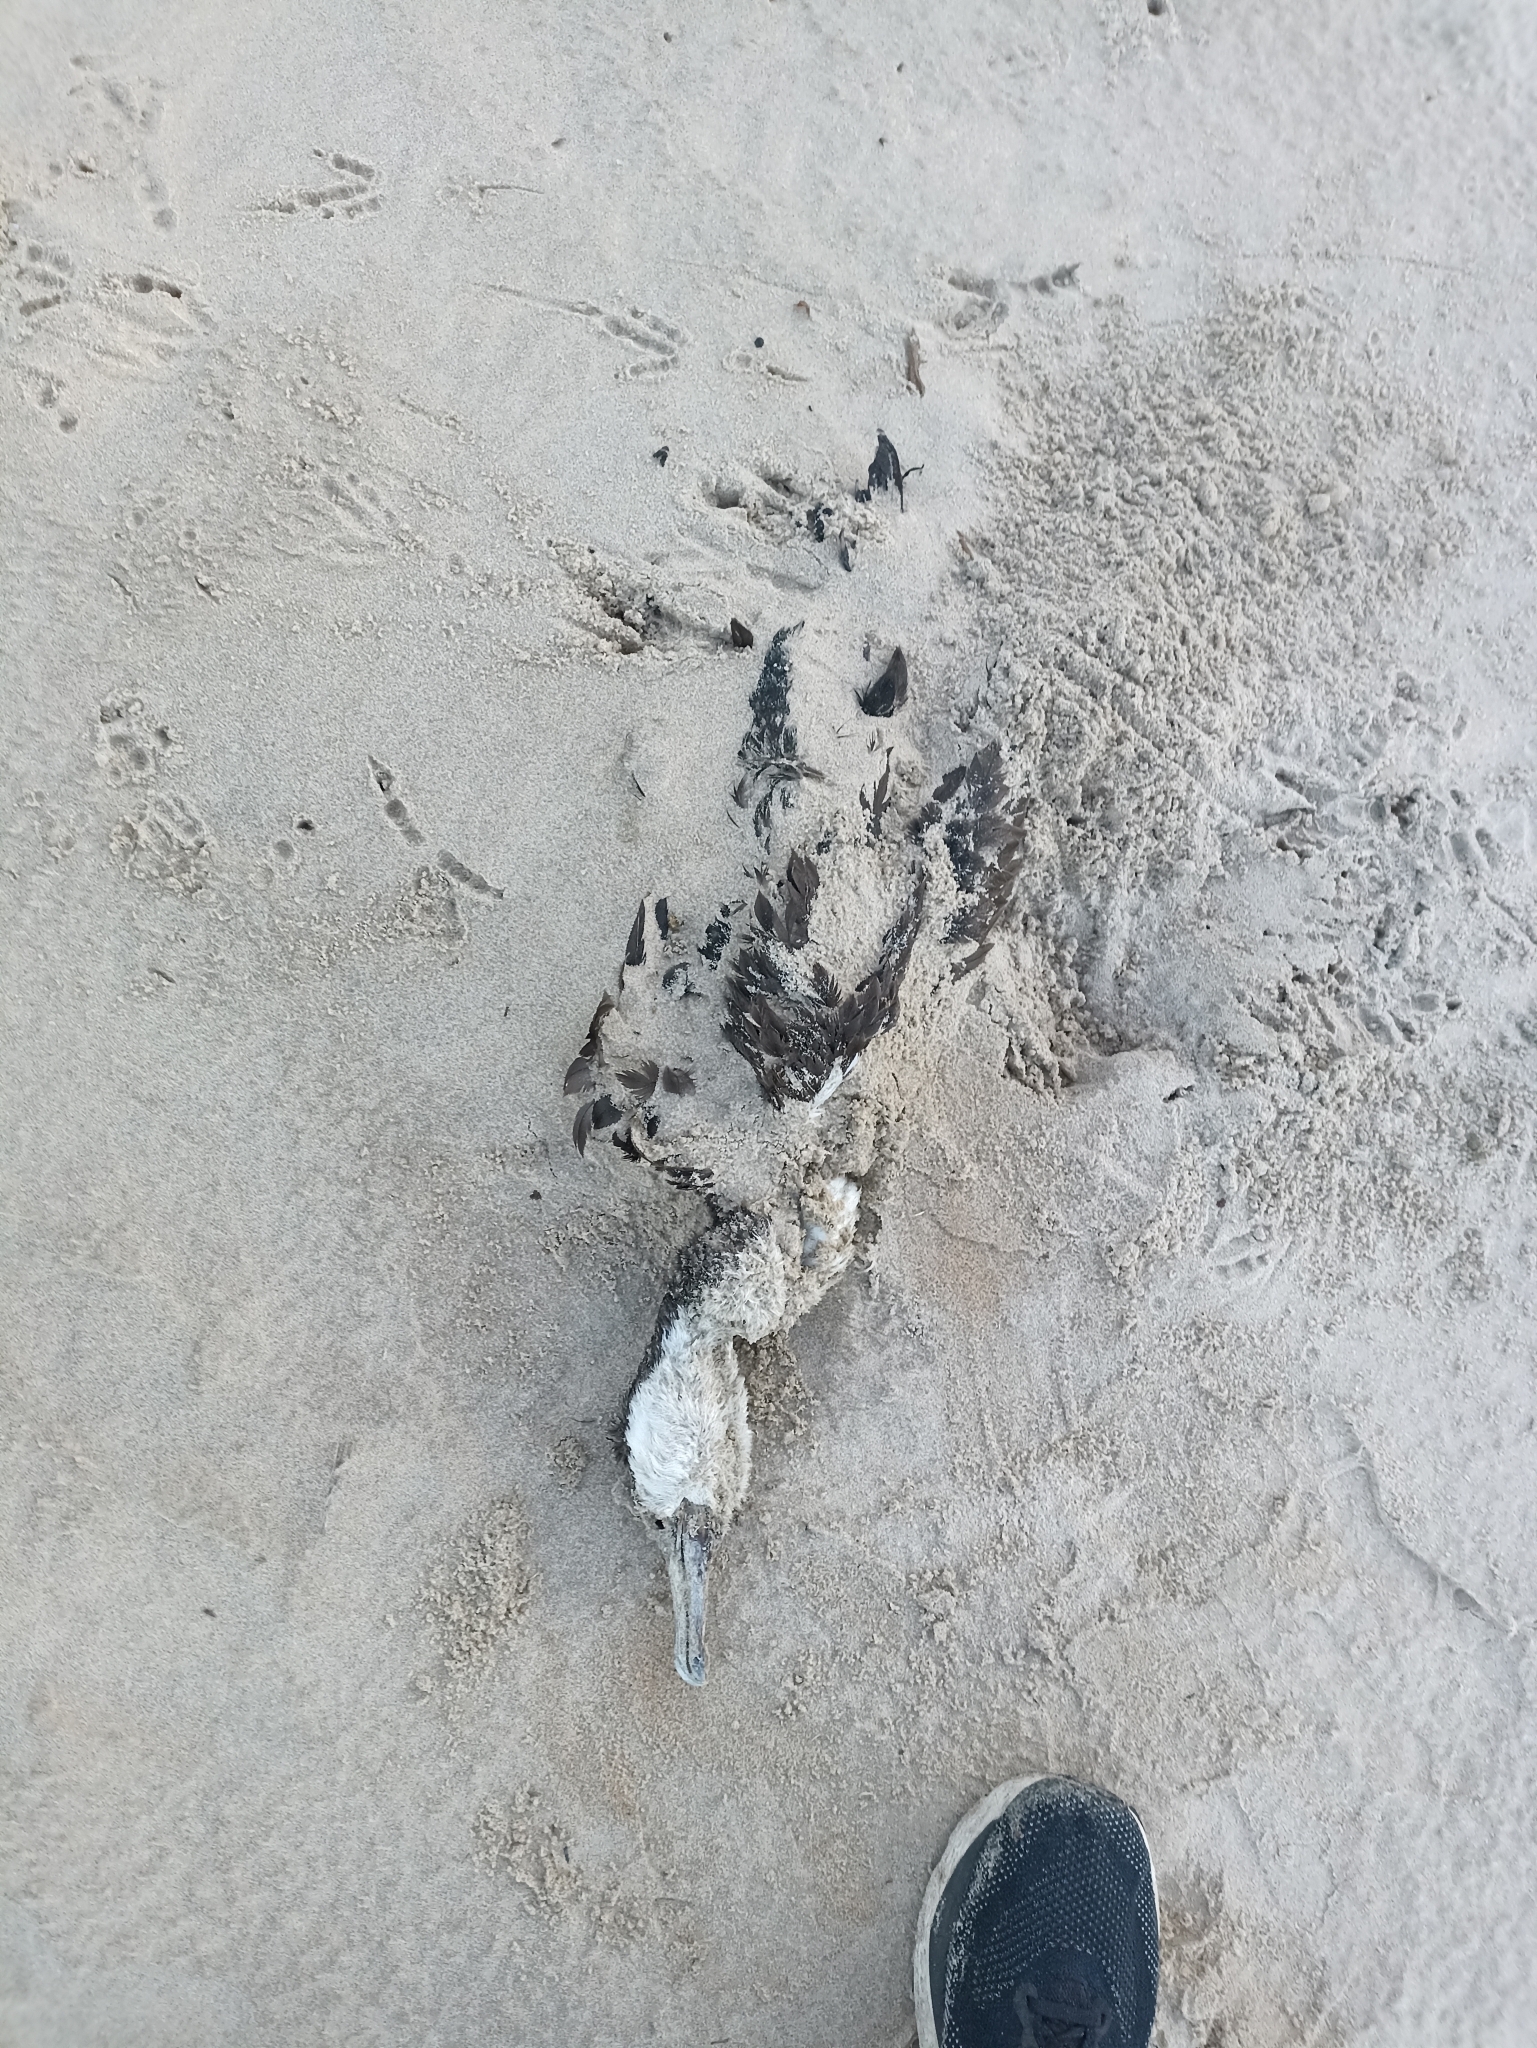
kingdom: Animalia
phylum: Chordata
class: Aves
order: Suliformes
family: Phalacrocoracidae
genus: Phalacrocorax
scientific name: Phalacrocorax varius
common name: Pied cormorant
